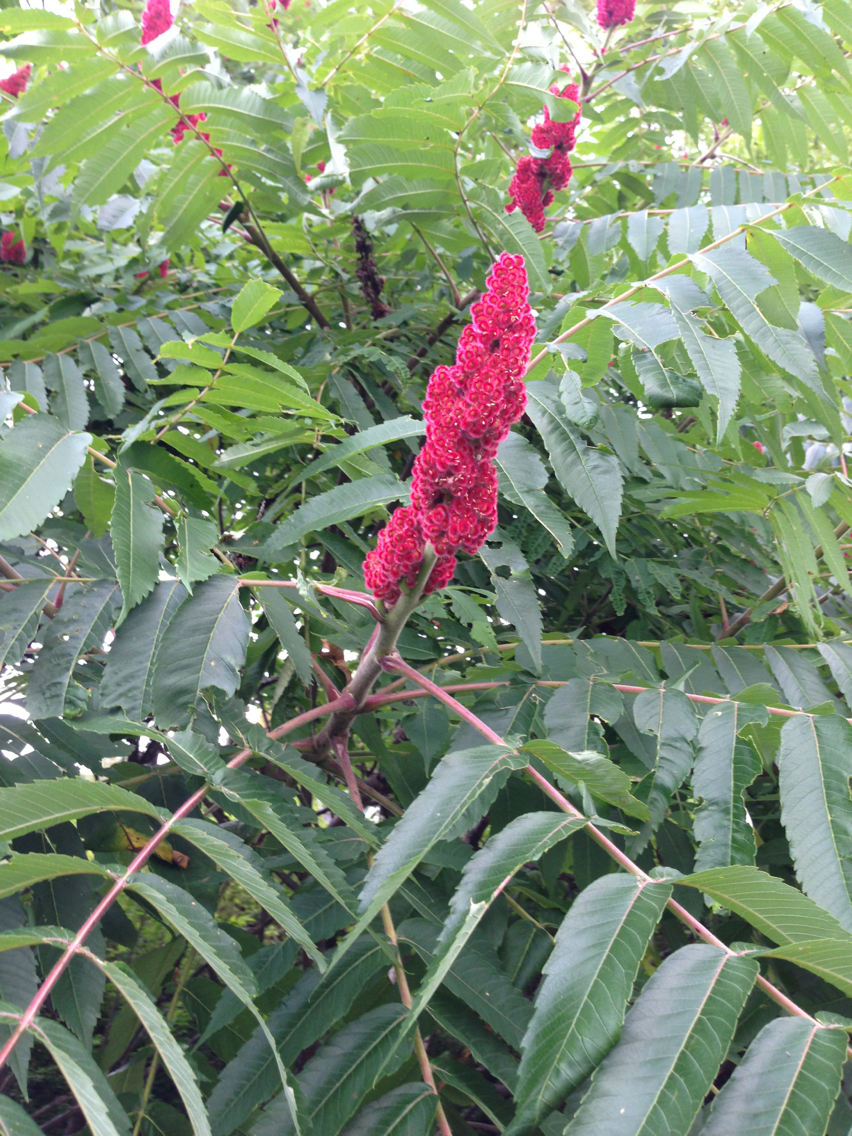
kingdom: Plantae
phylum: Tracheophyta
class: Magnoliopsida
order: Sapindales
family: Anacardiaceae
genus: Rhus
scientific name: Rhus typhina
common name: Staghorn sumac
